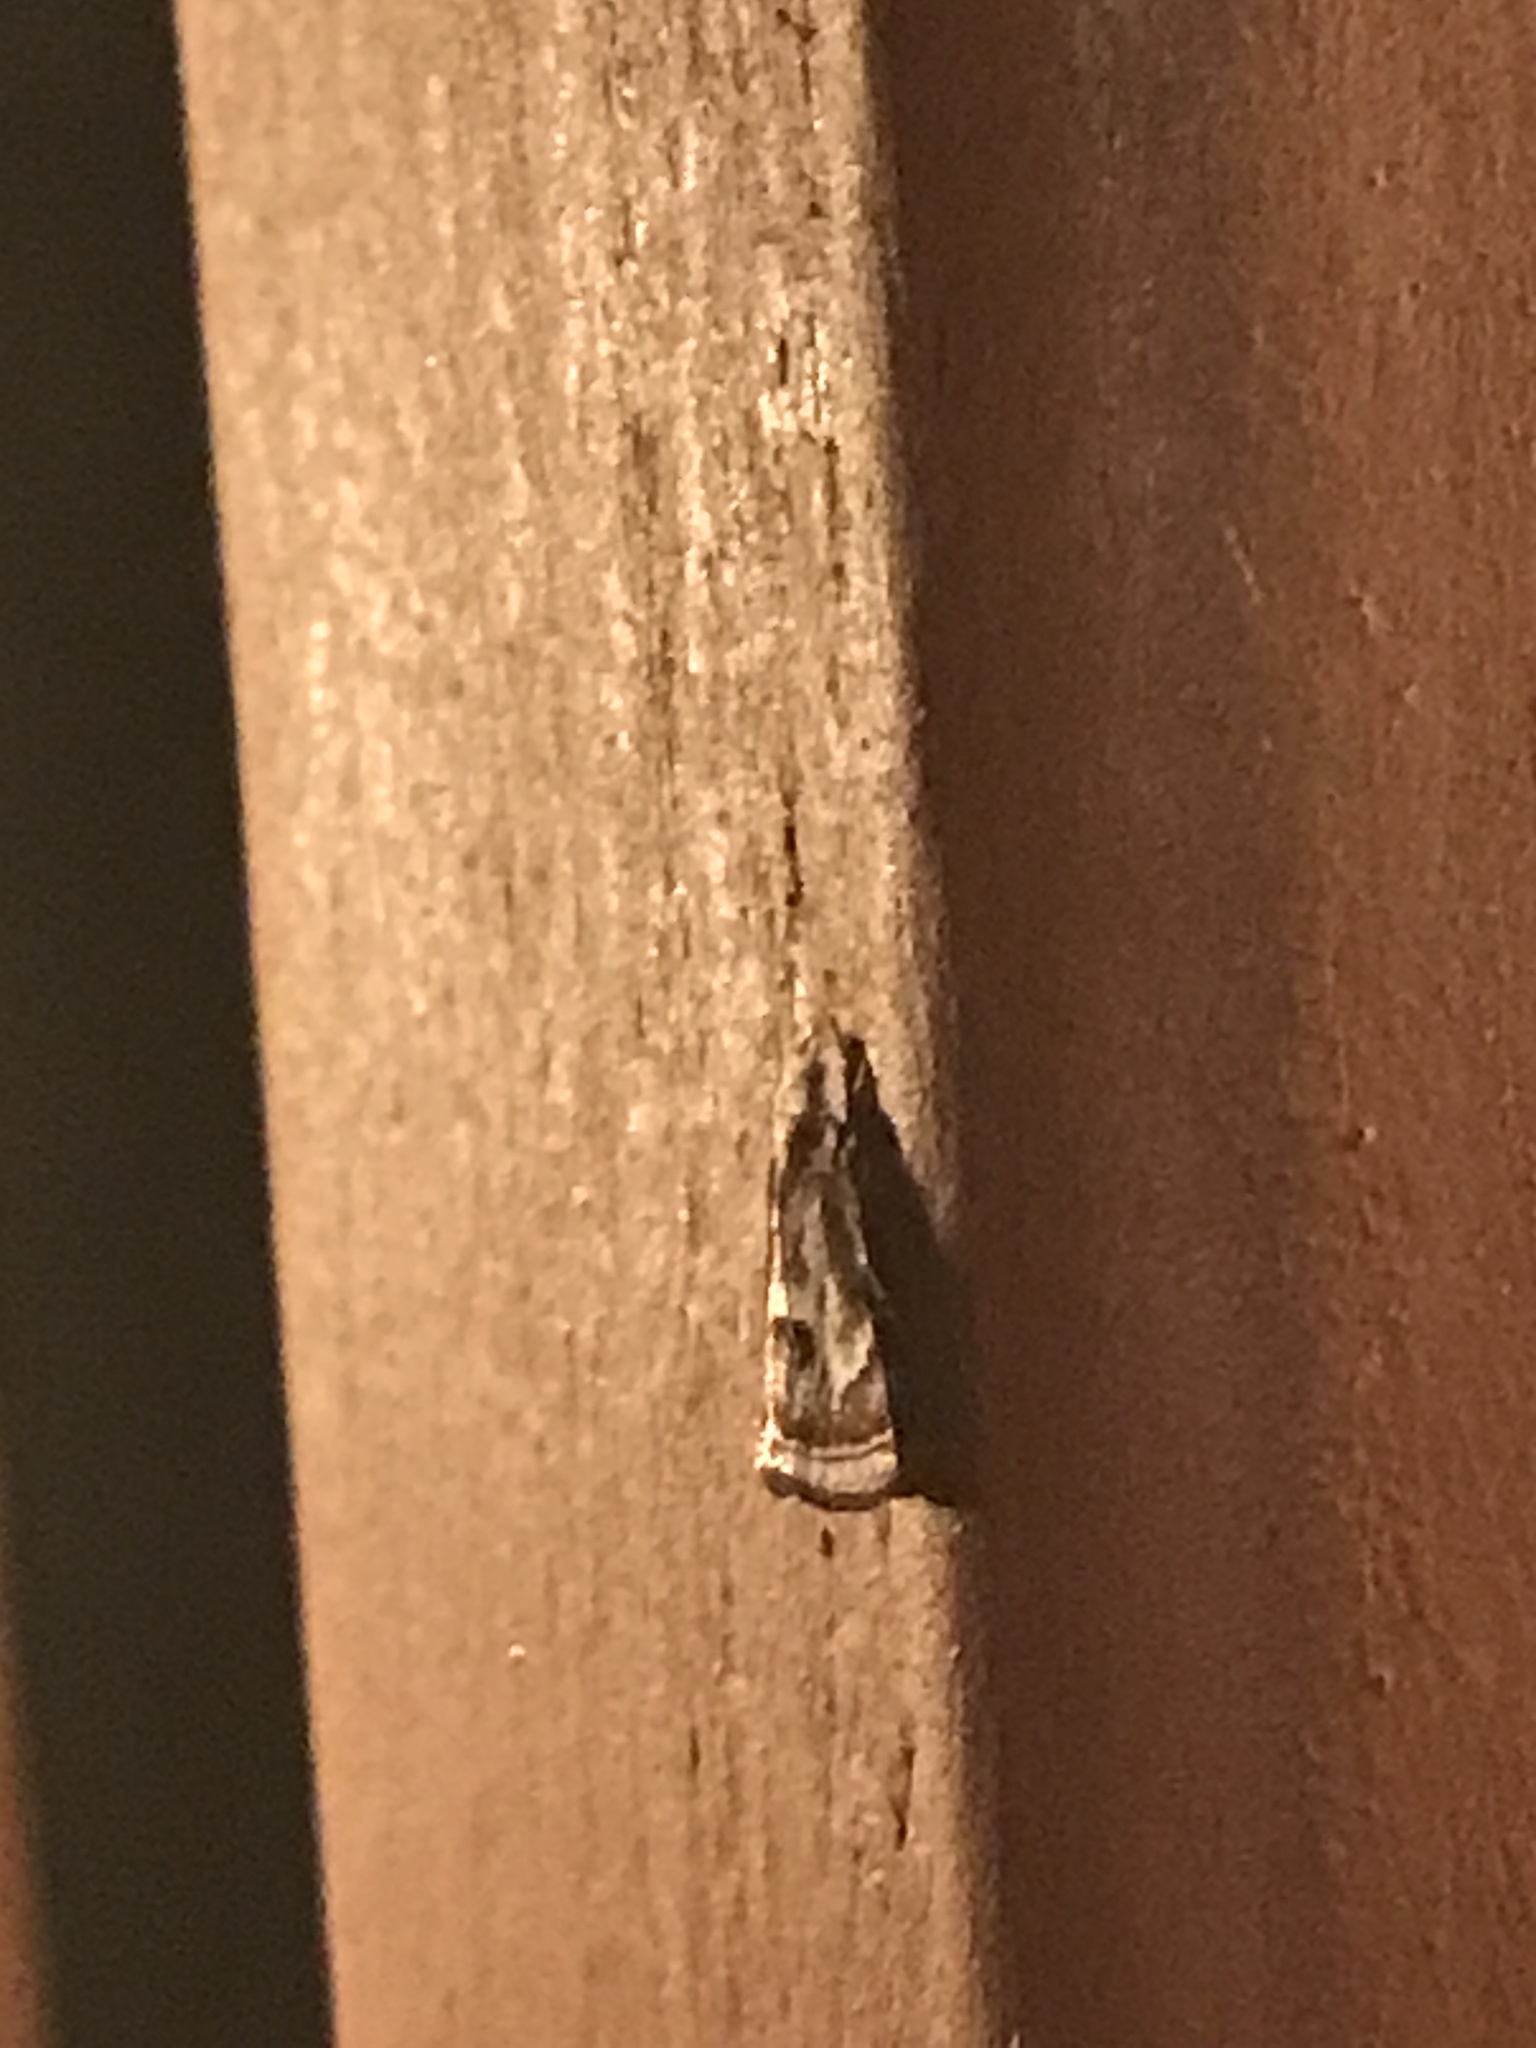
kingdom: Animalia
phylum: Arthropoda
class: Insecta
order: Lepidoptera
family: Crambidae
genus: Microcrambus
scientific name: Microcrambus elegans
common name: Elegant grass-veneer
